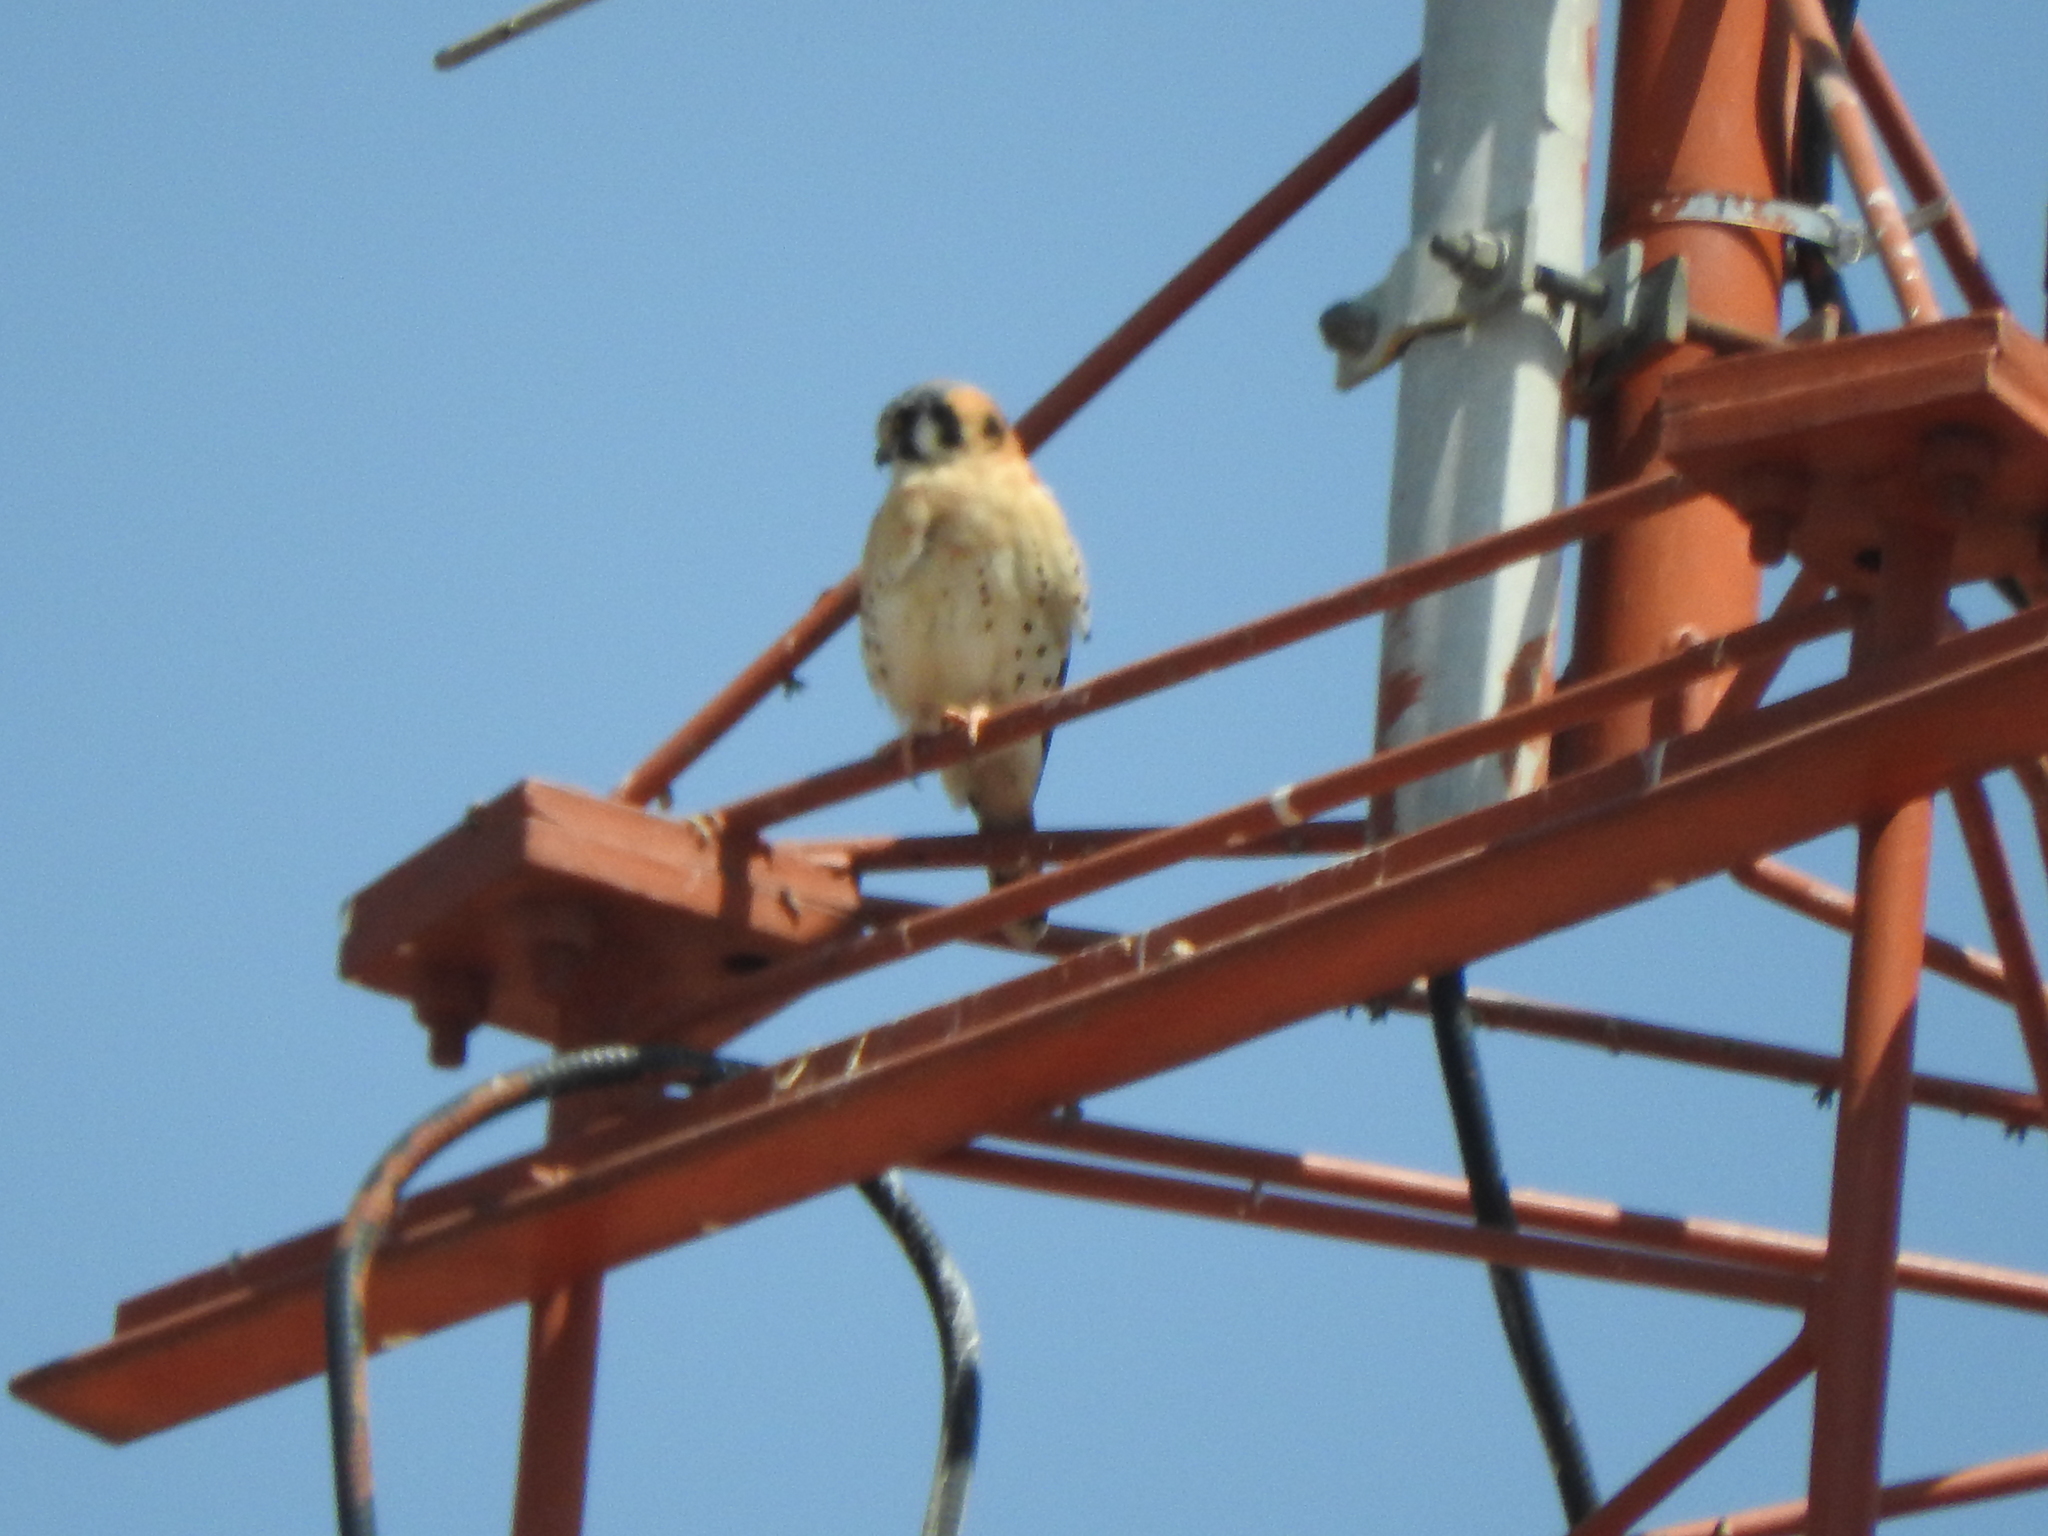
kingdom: Animalia
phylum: Chordata
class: Aves
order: Falconiformes
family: Falconidae
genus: Falco
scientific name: Falco sparverius
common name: American kestrel
